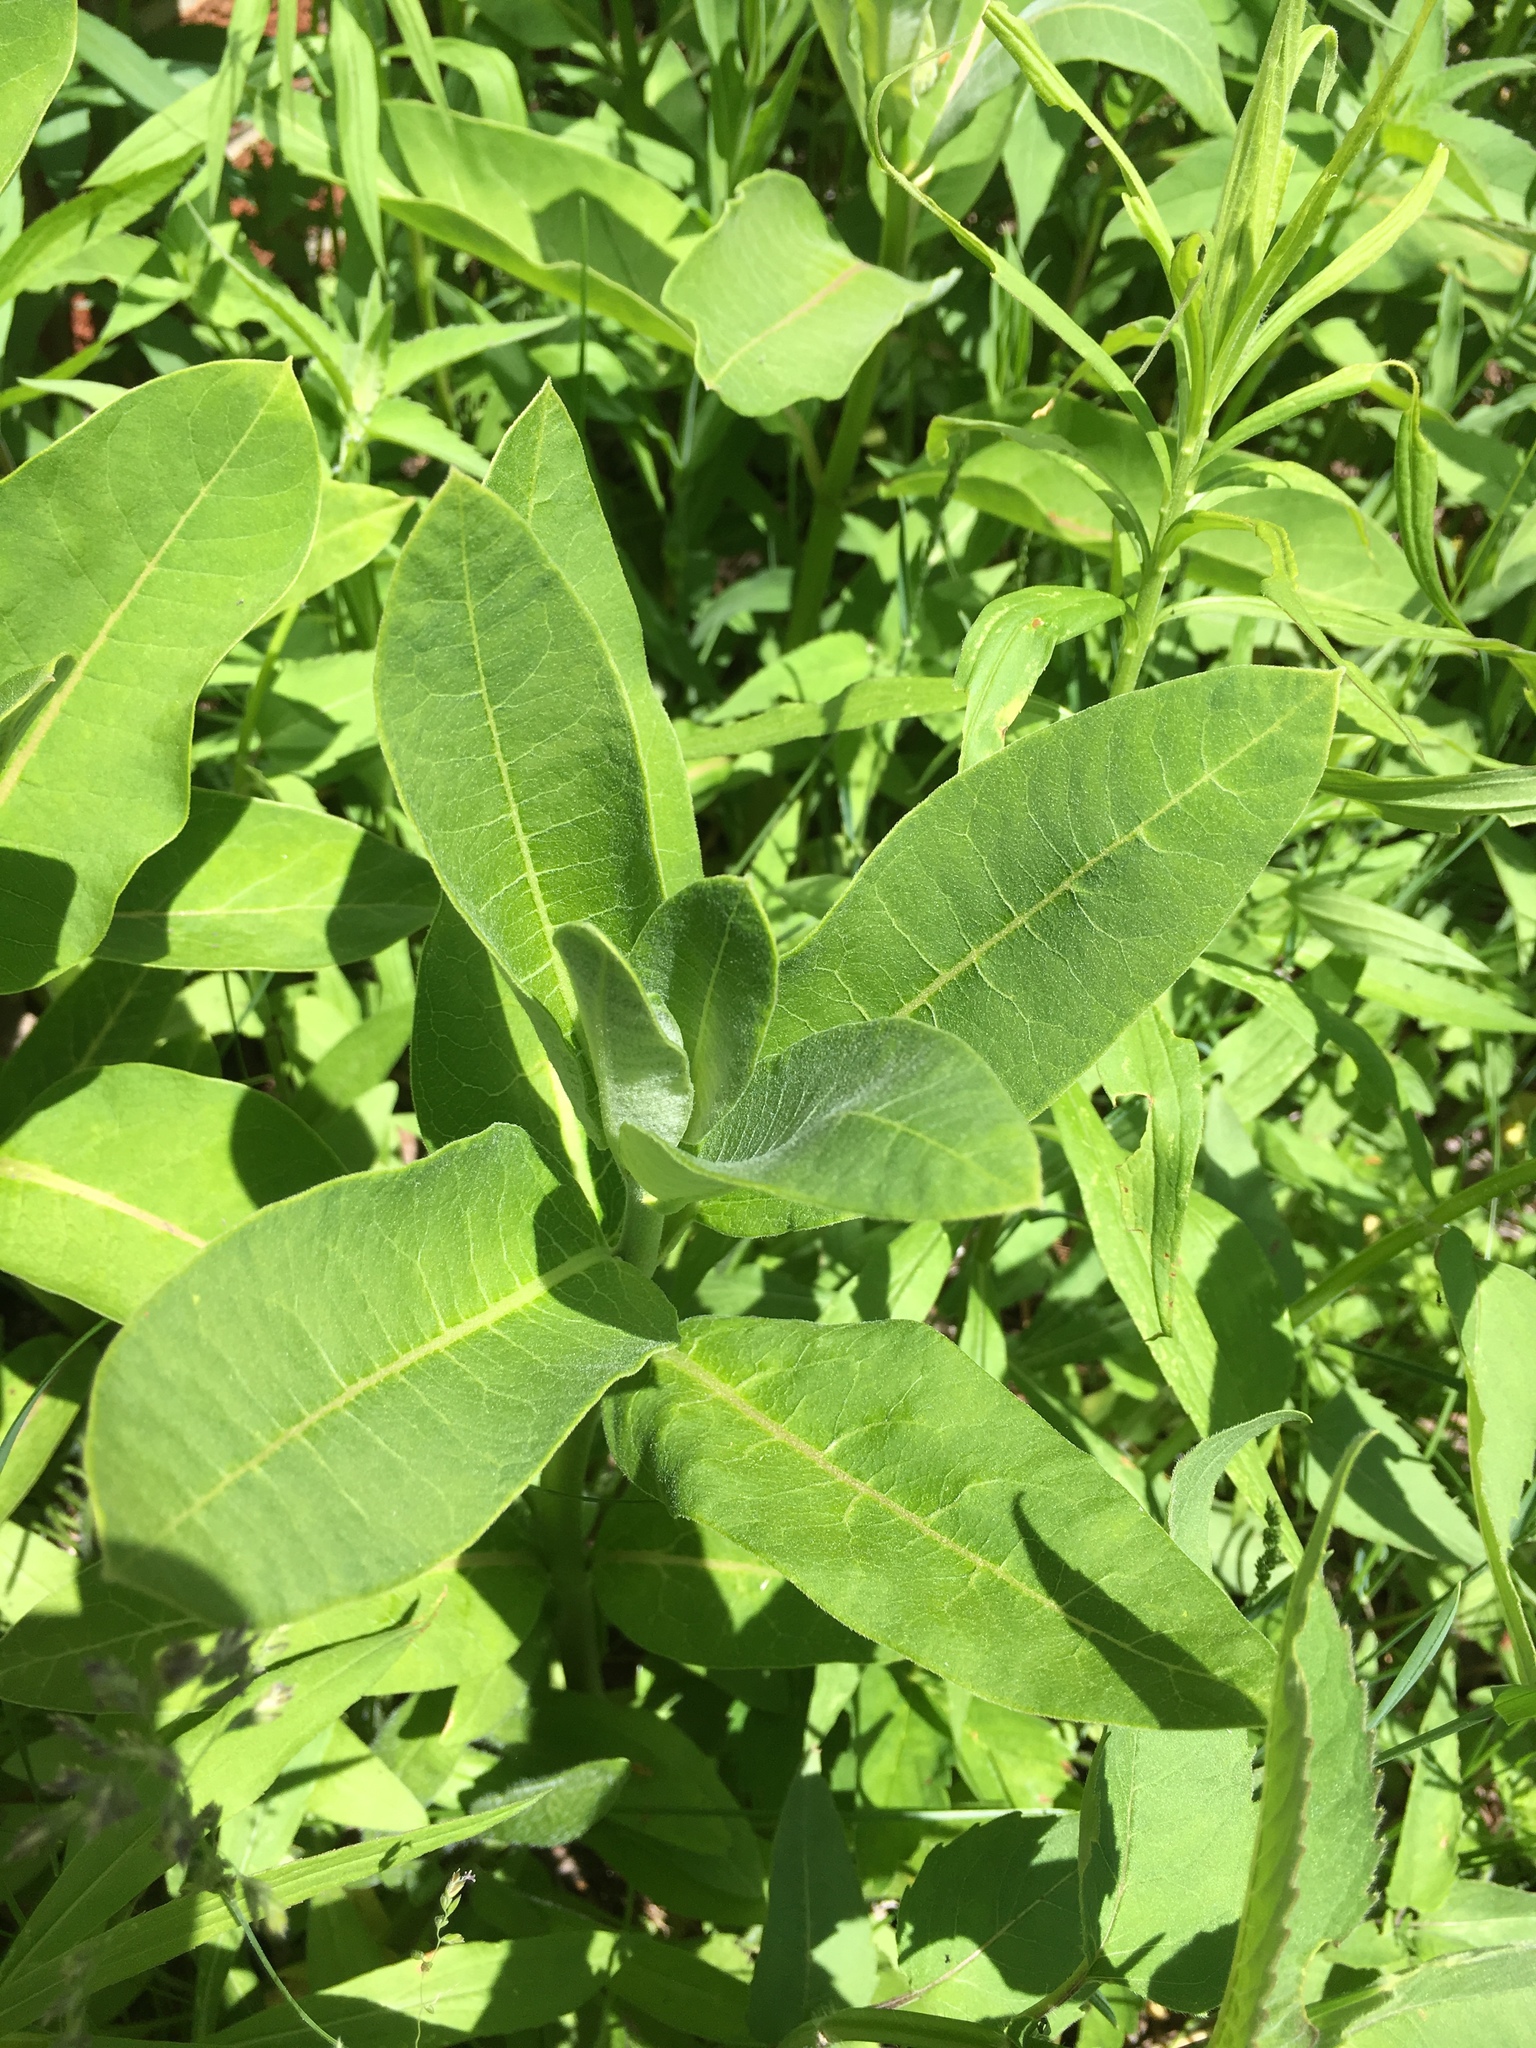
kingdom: Plantae
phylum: Tracheophyta
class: Magnoliopsida
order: Gentianales
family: Apocynaceae
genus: Asclepias
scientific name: Asclepias syriaca
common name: Common milkweed
